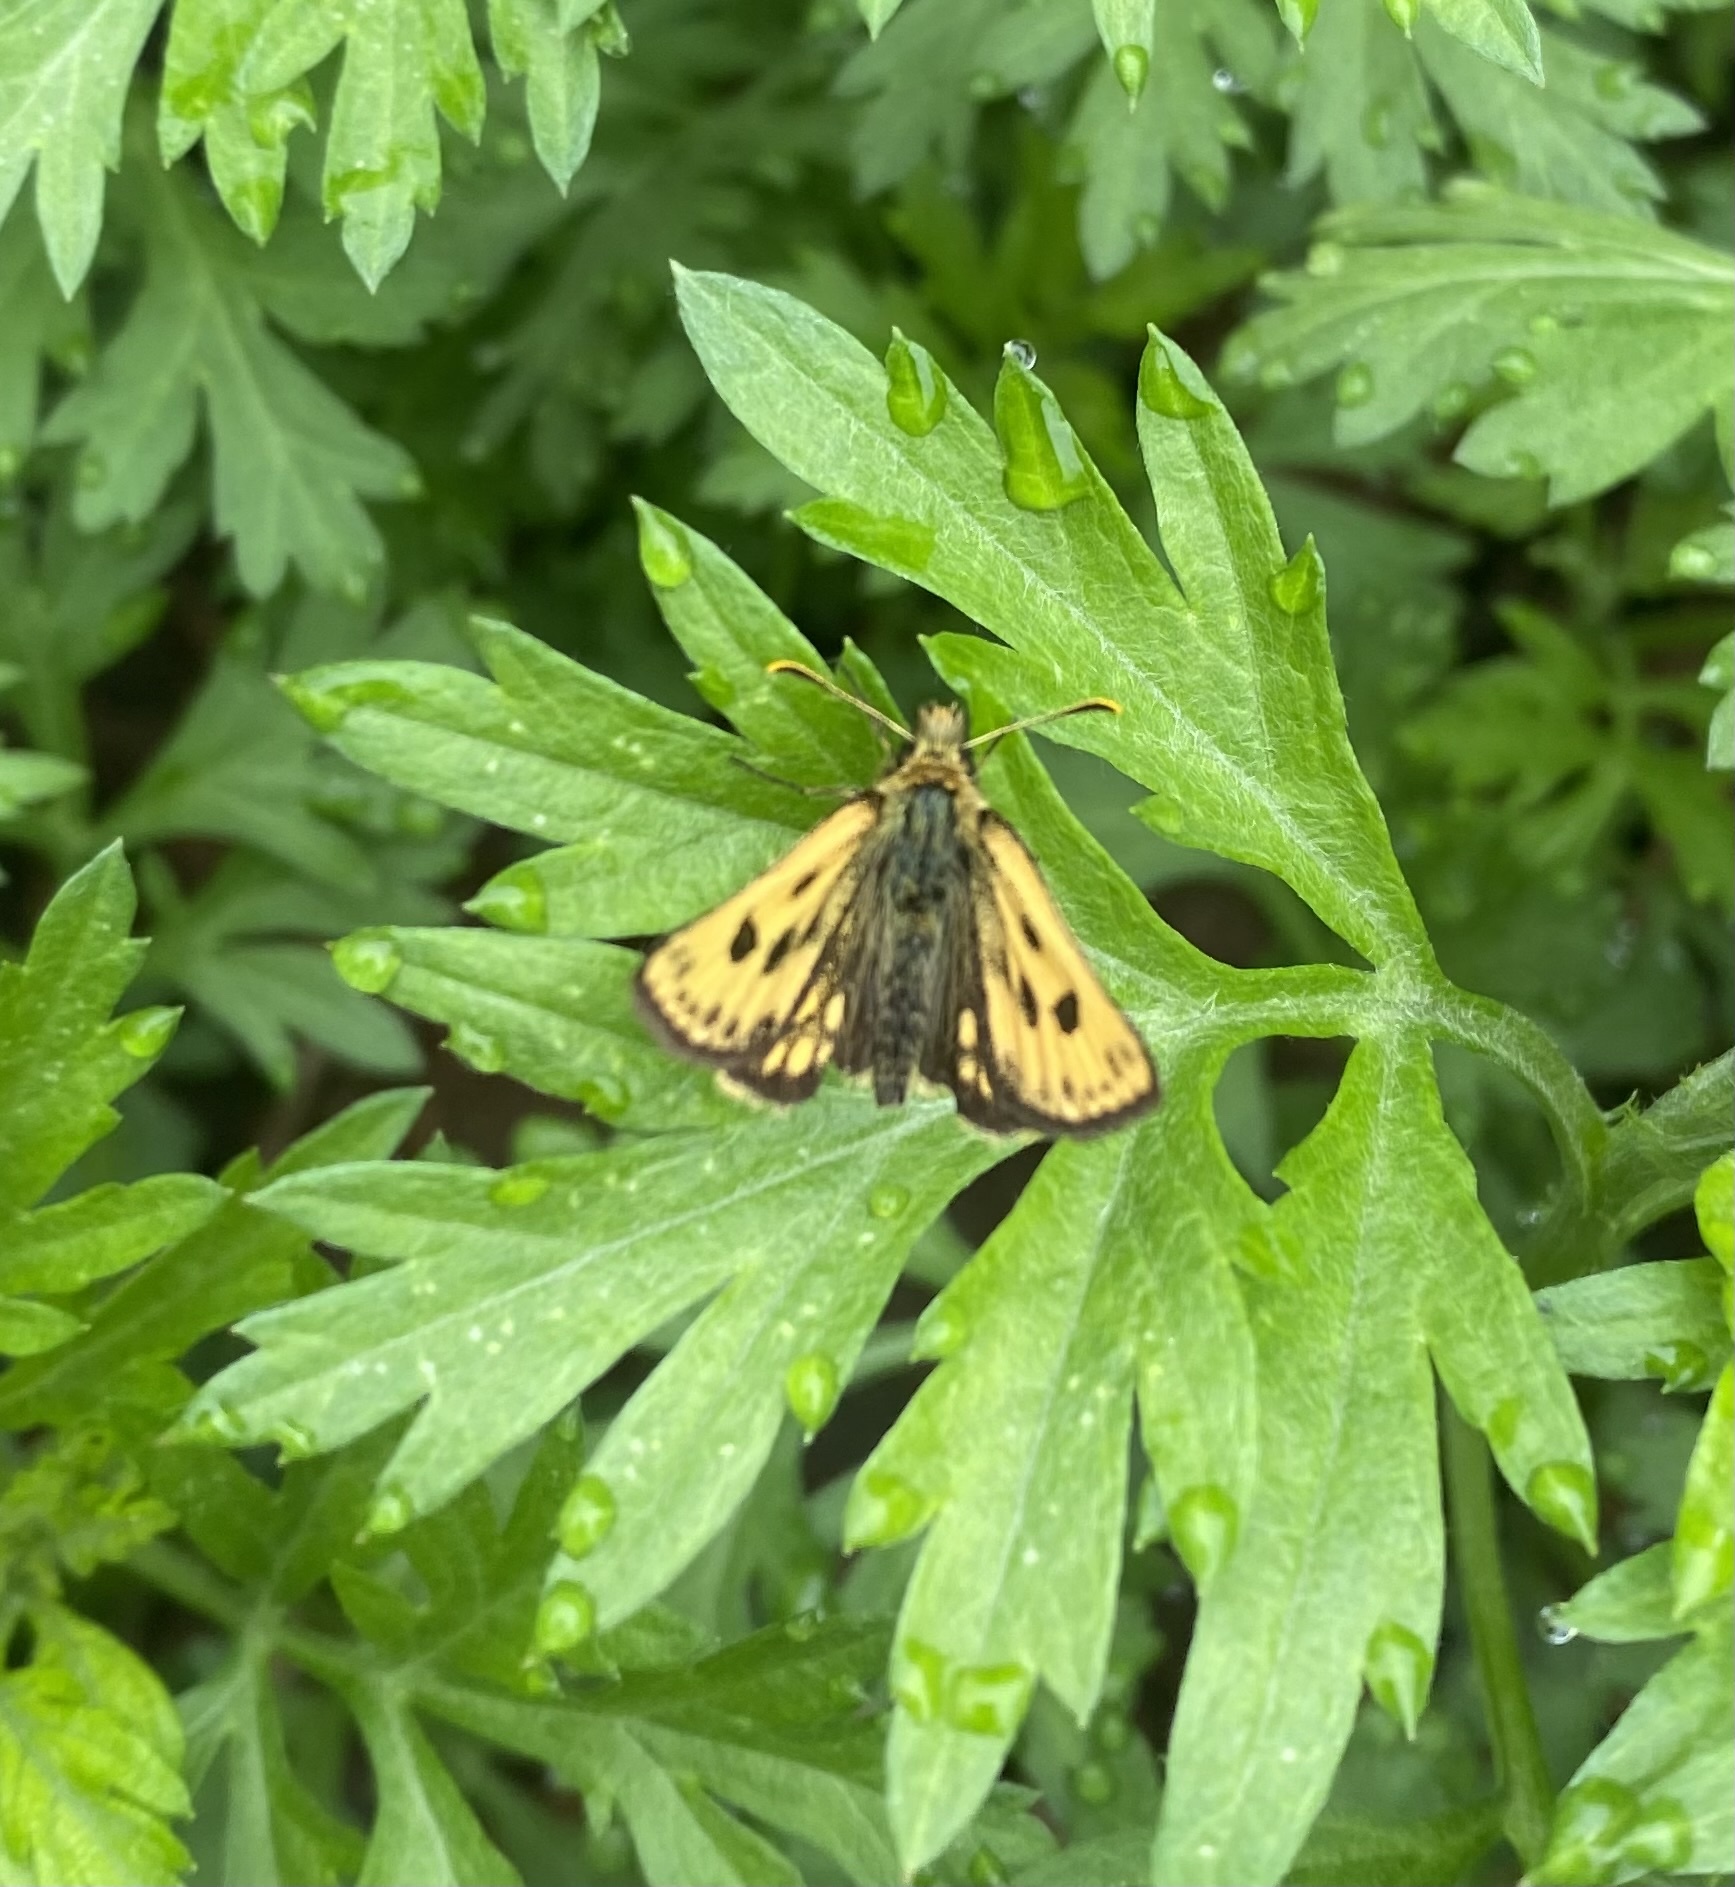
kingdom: Animalia
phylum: Arthropoda
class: Insecta
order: Lepidoptera
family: Hesperiidae
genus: Carterocephalus
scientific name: Carterocephalus silvicola
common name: Northern chequered skipper
